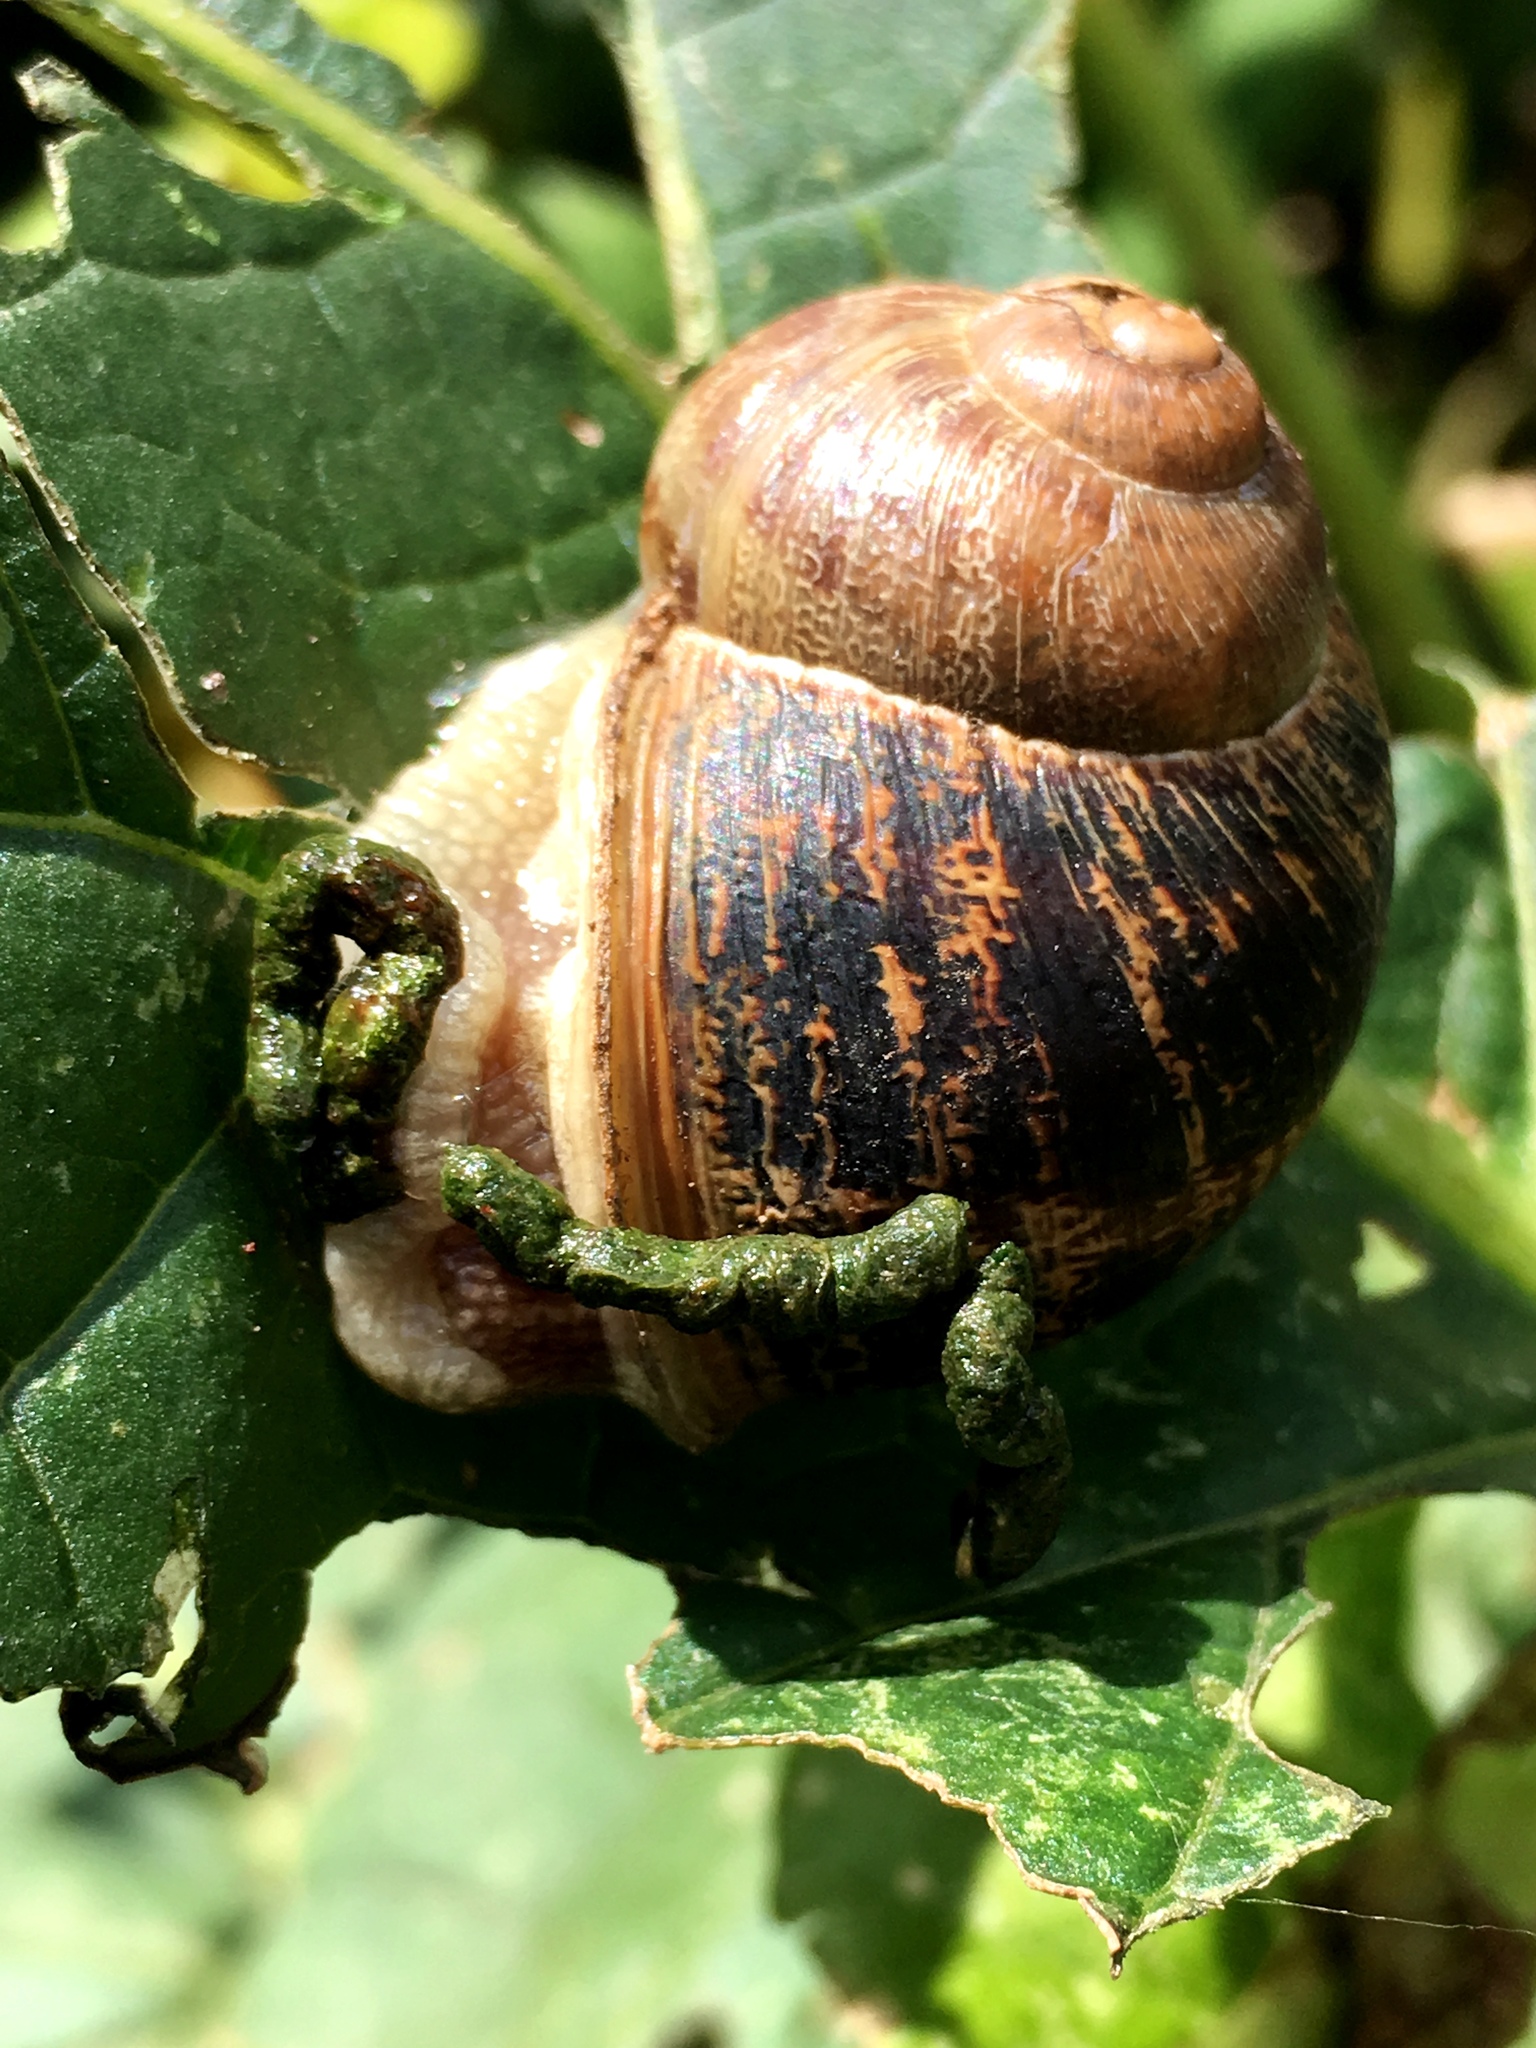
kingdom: Animalia
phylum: Mollusca
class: Gastropoda
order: Stylommatophora
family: Helicidae
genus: Cornu
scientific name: Cornu aspersum
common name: Brown garden snail
